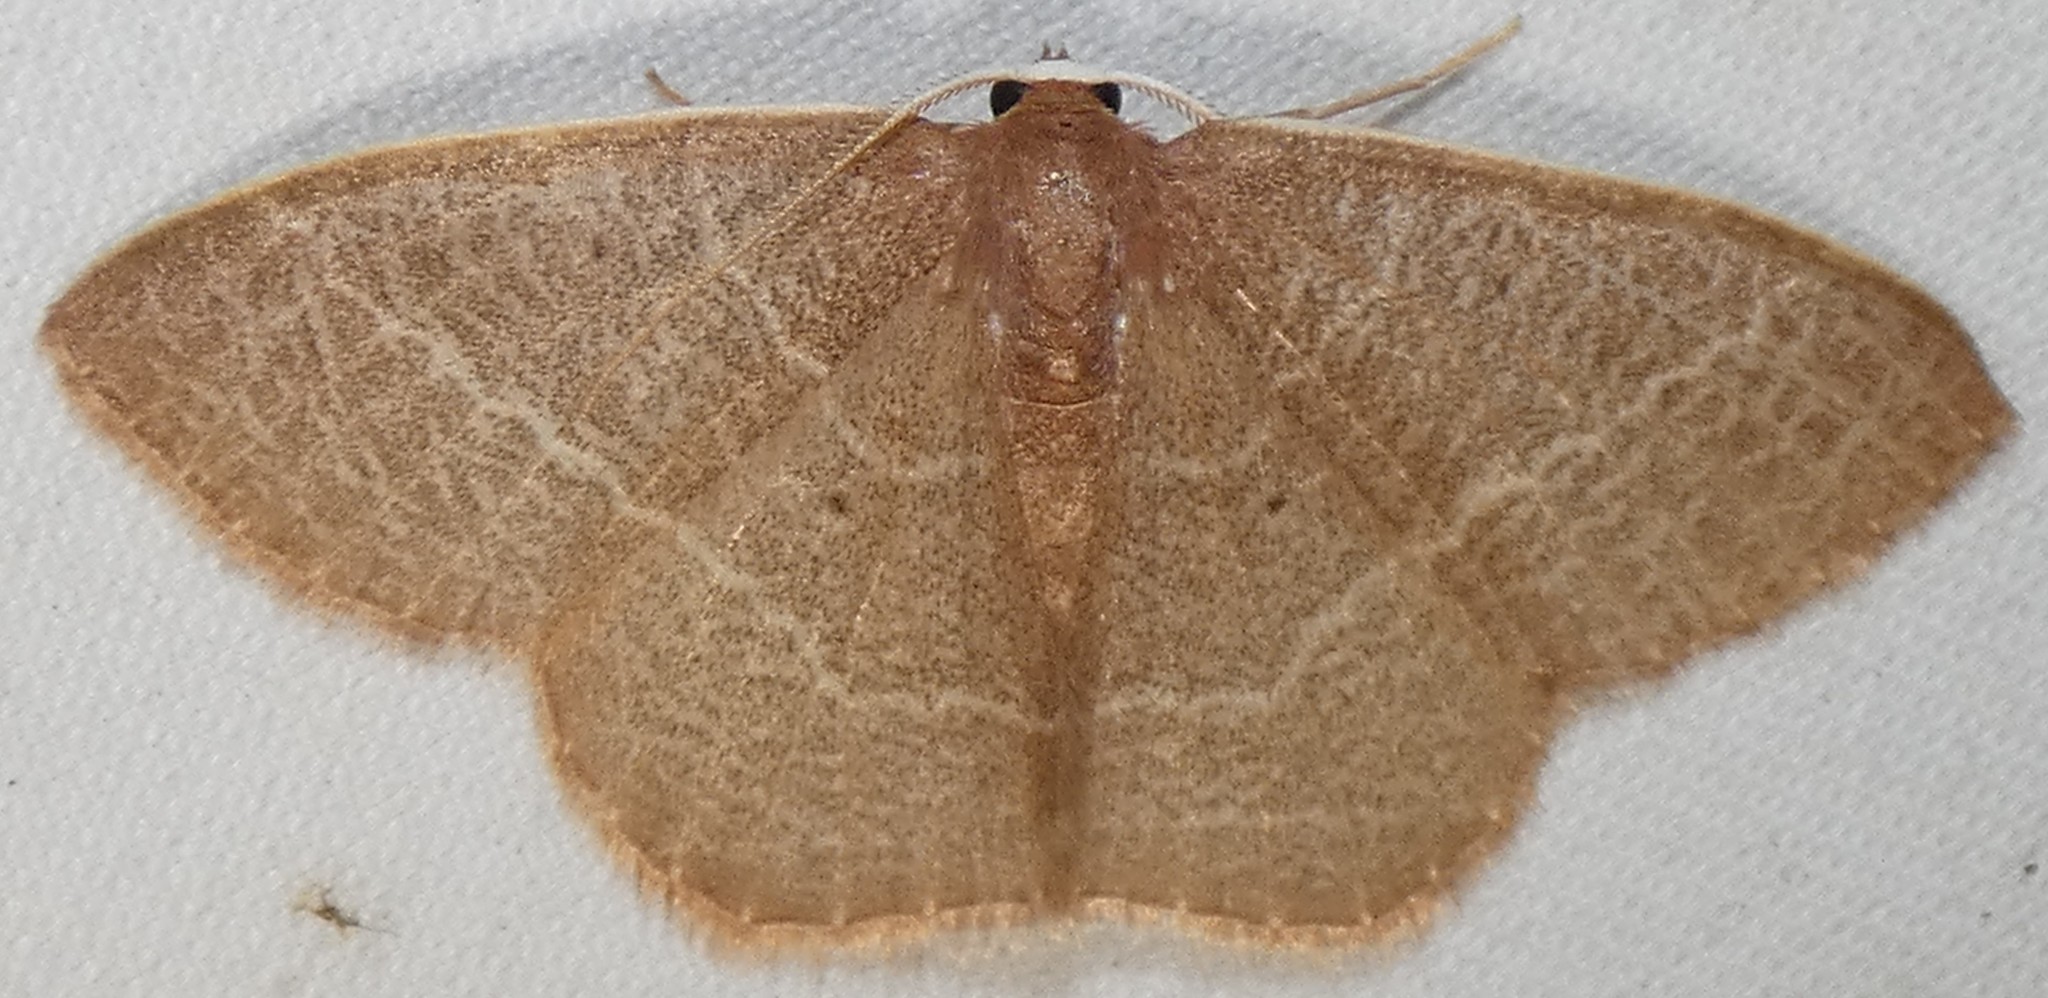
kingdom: Animalia
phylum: Arthropoda
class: Insecta
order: Lepidoptera
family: Geometridae
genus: Nemoria
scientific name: Nemoria bistriaria
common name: Red-fringed emerald
